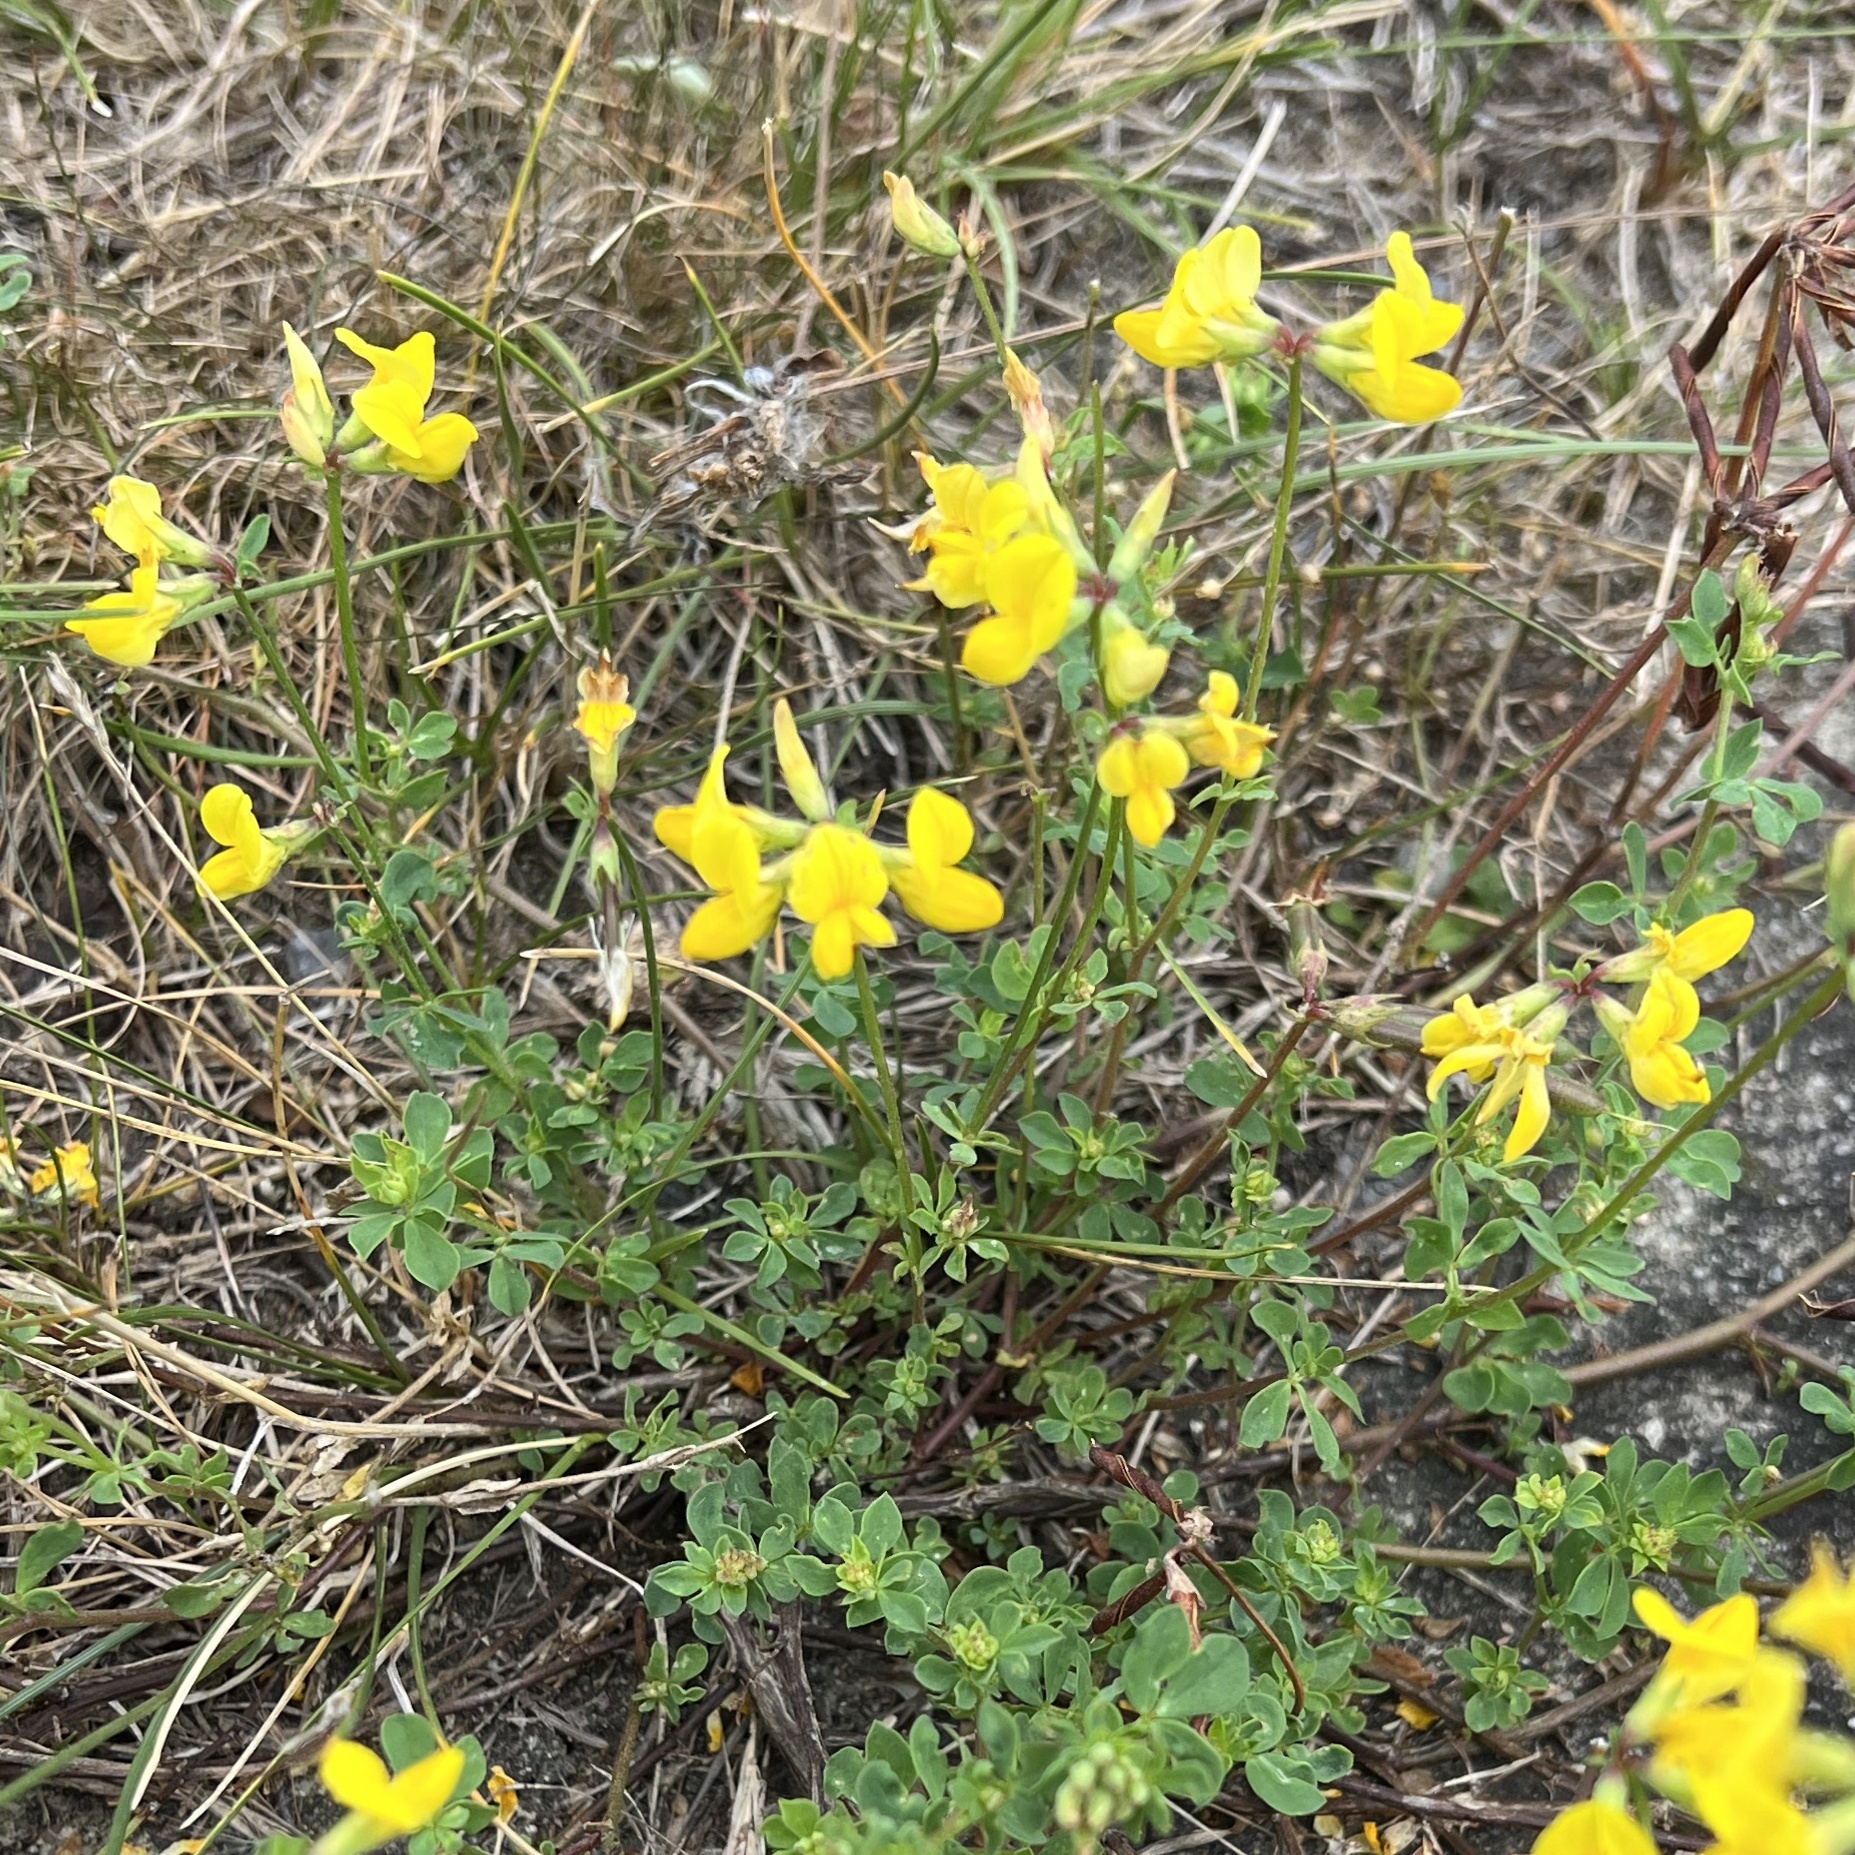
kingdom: Plantae
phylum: Tracheophyta
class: Magnoliopsida
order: Fabales
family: Fabaceae
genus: Lotus
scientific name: Lotus corniculatus
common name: Common bird's-foot-trefoil
